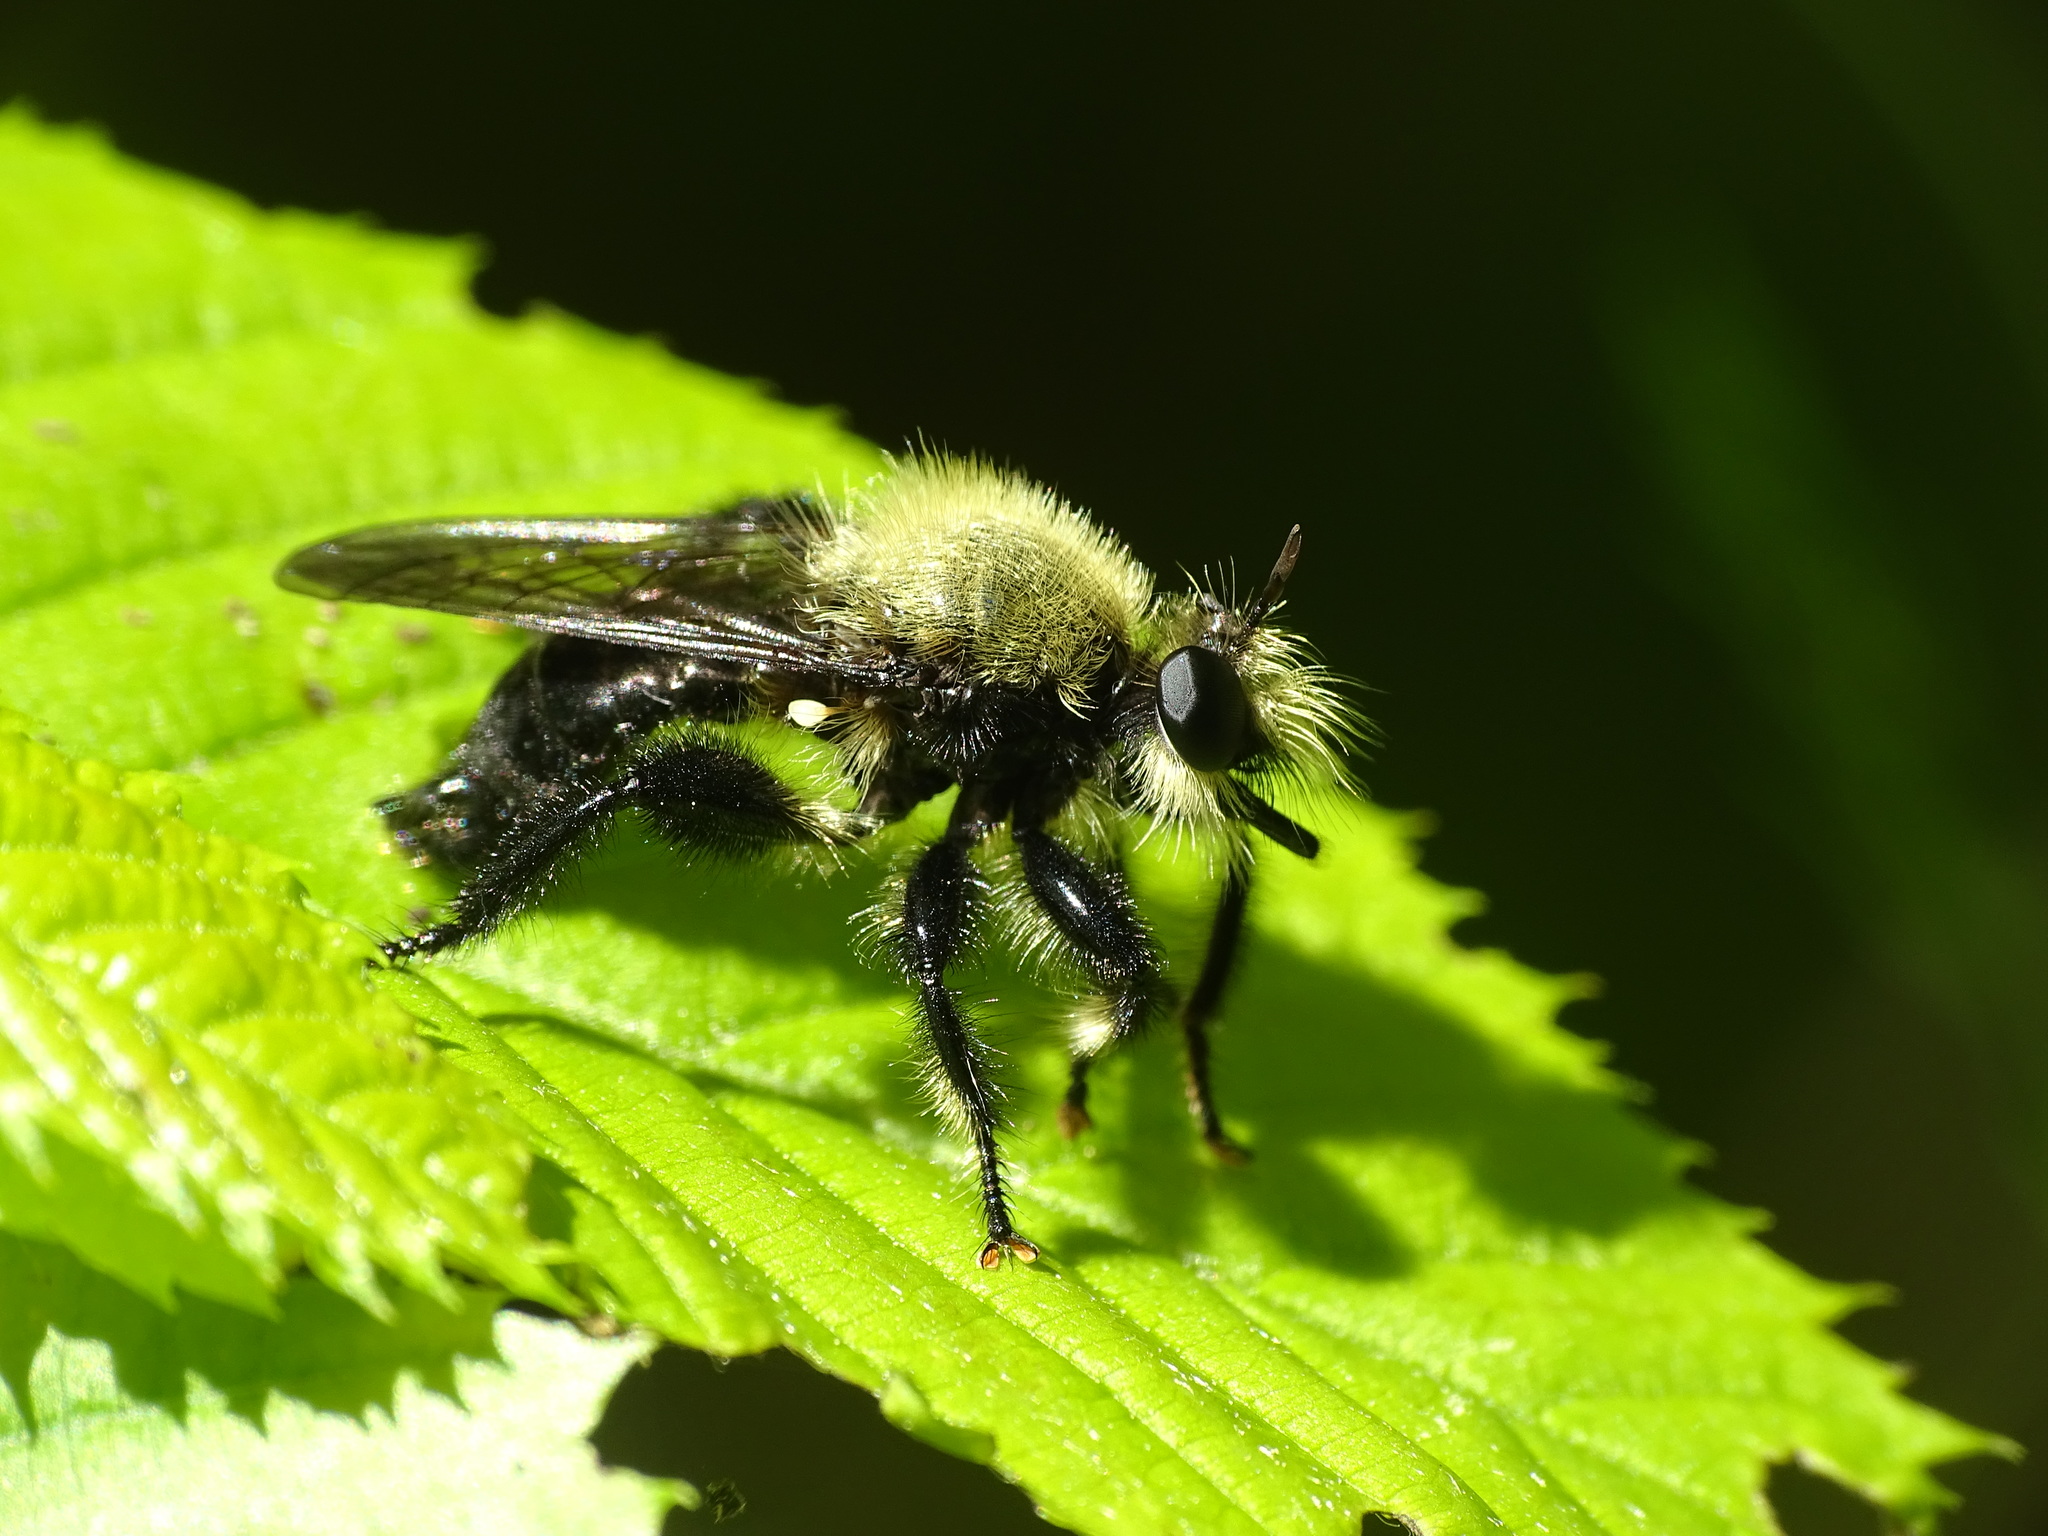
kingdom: Animalia
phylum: Arthropoda
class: Insecta
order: Diptera
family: Asilidae
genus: Laphria
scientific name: Laphria flavicollis
